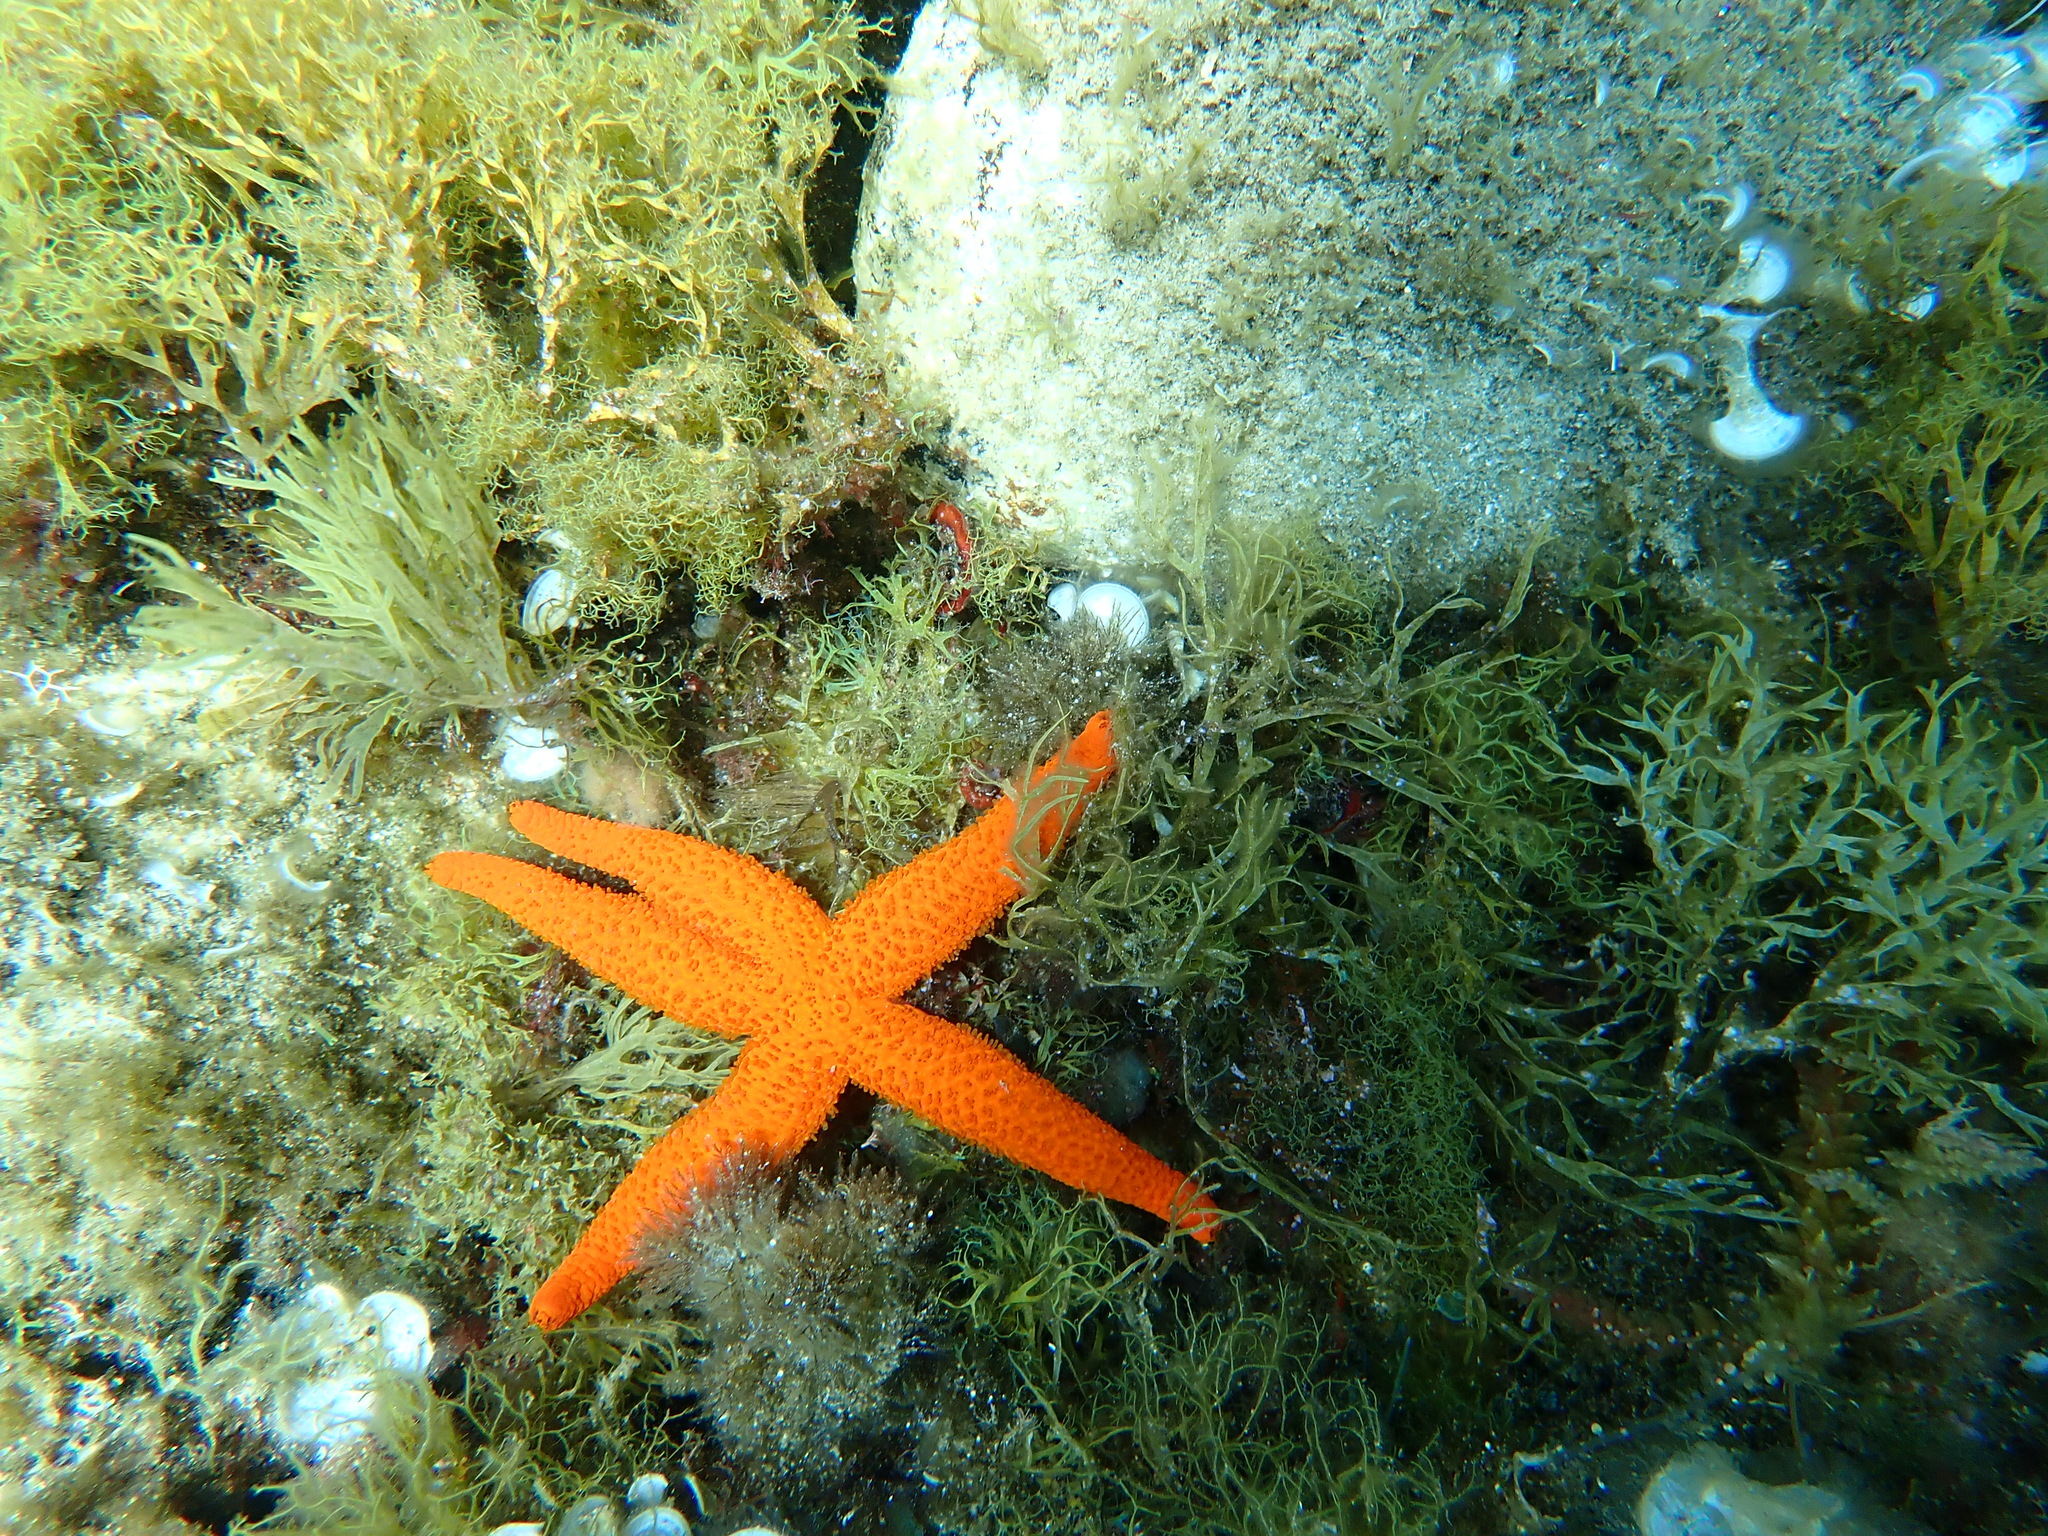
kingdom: Animalia
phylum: Echinodermata
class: Asteroidea
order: Spinulosida
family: Echinasteridae
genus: Echinaster
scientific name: Echinaster sepositus
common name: Red starfish
